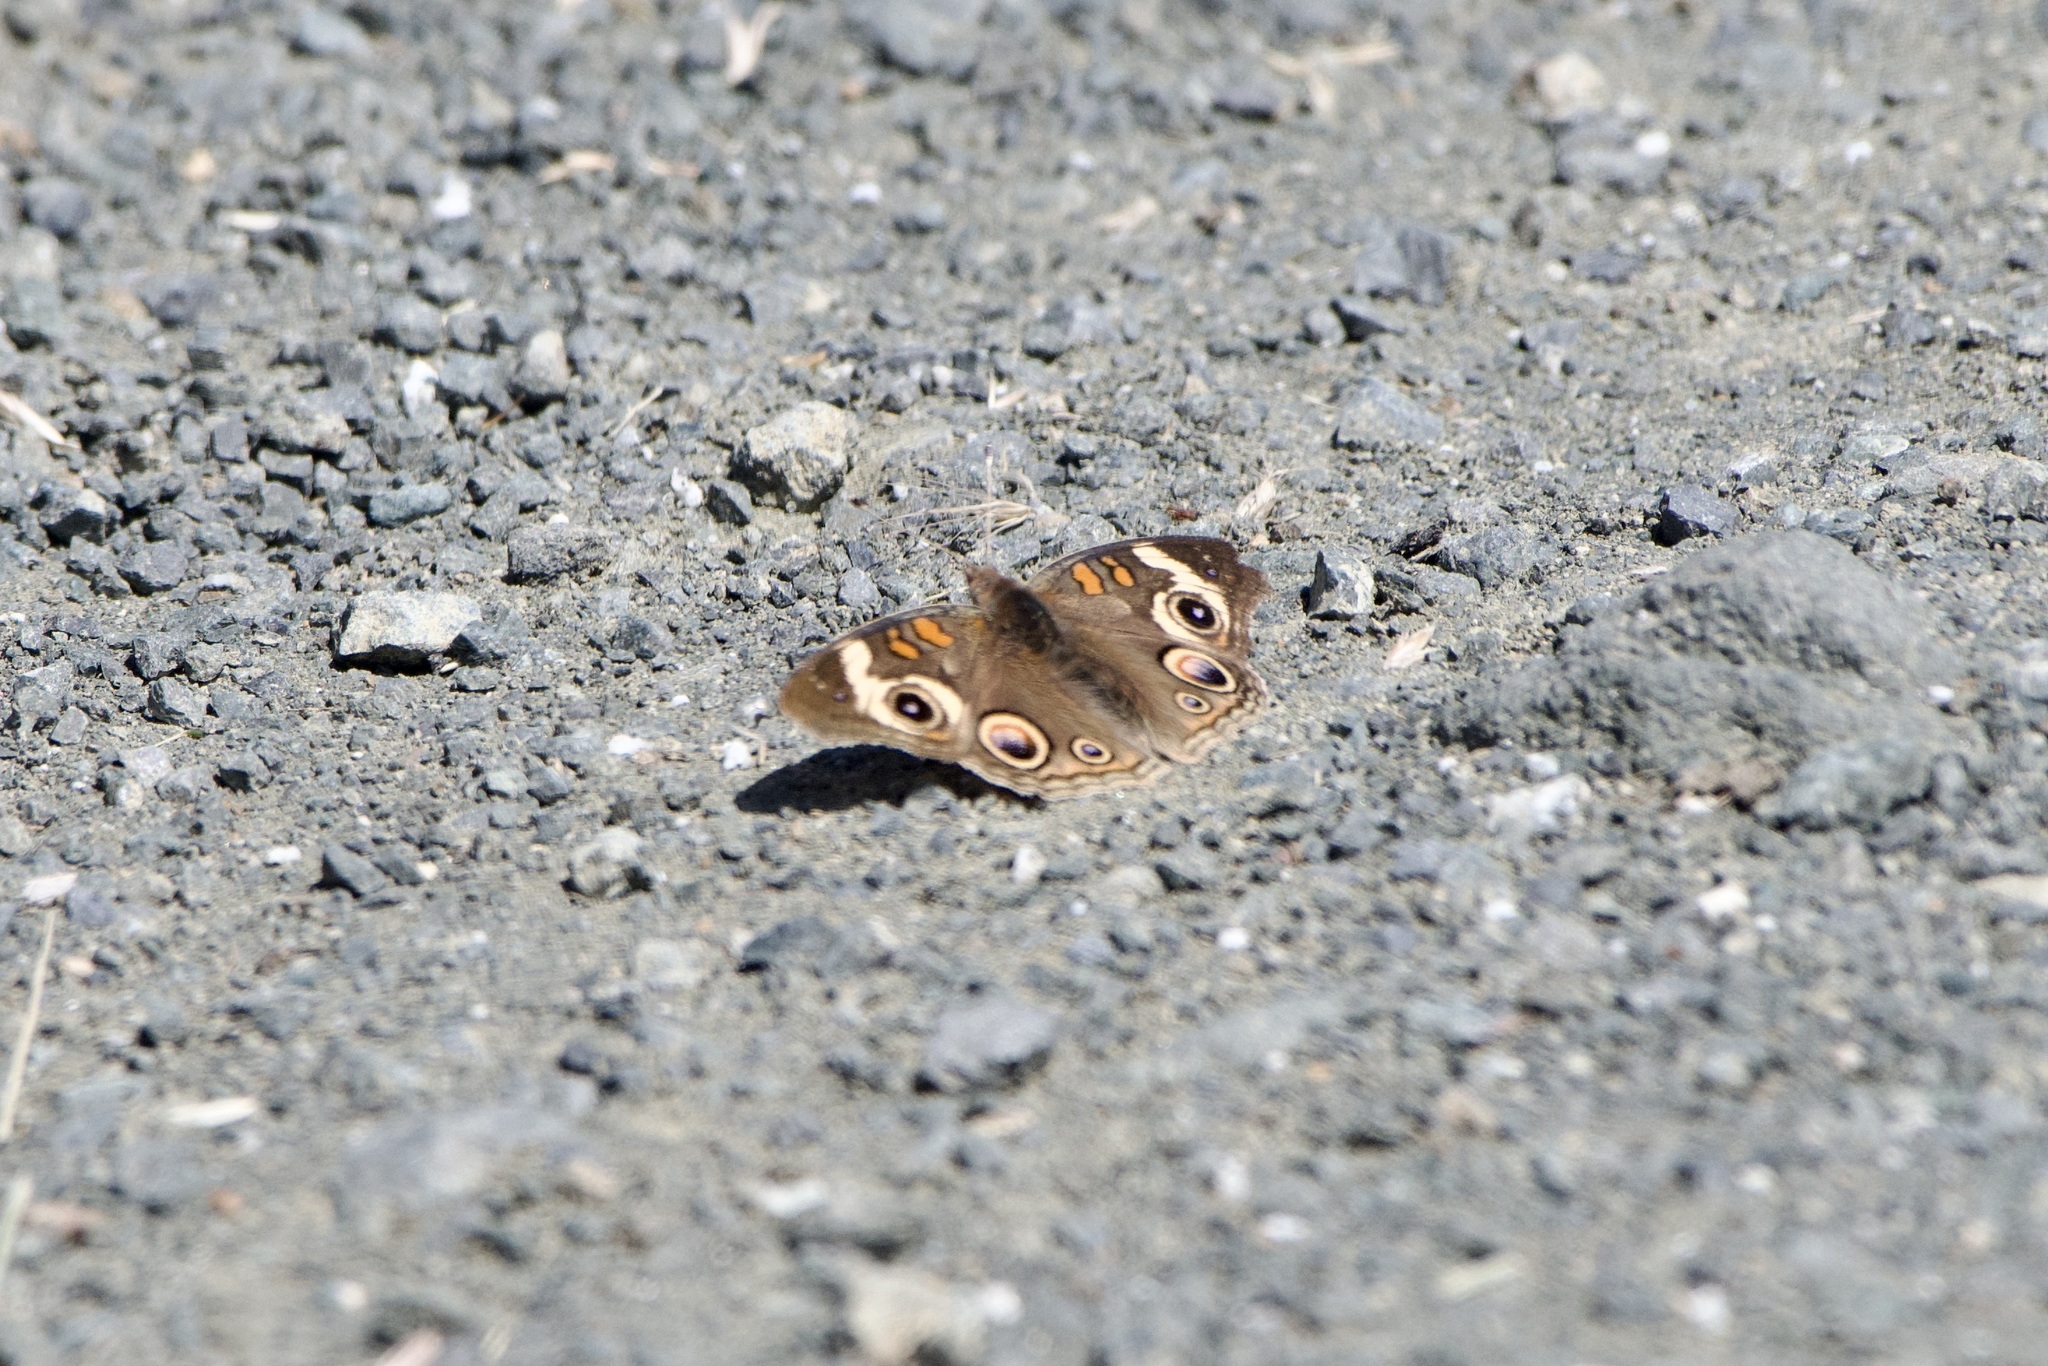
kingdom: Animalia
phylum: Arthropoda
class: Insecta
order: Lepidoptera
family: Nymphalidae
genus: Junonia
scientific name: Junonia grisea
